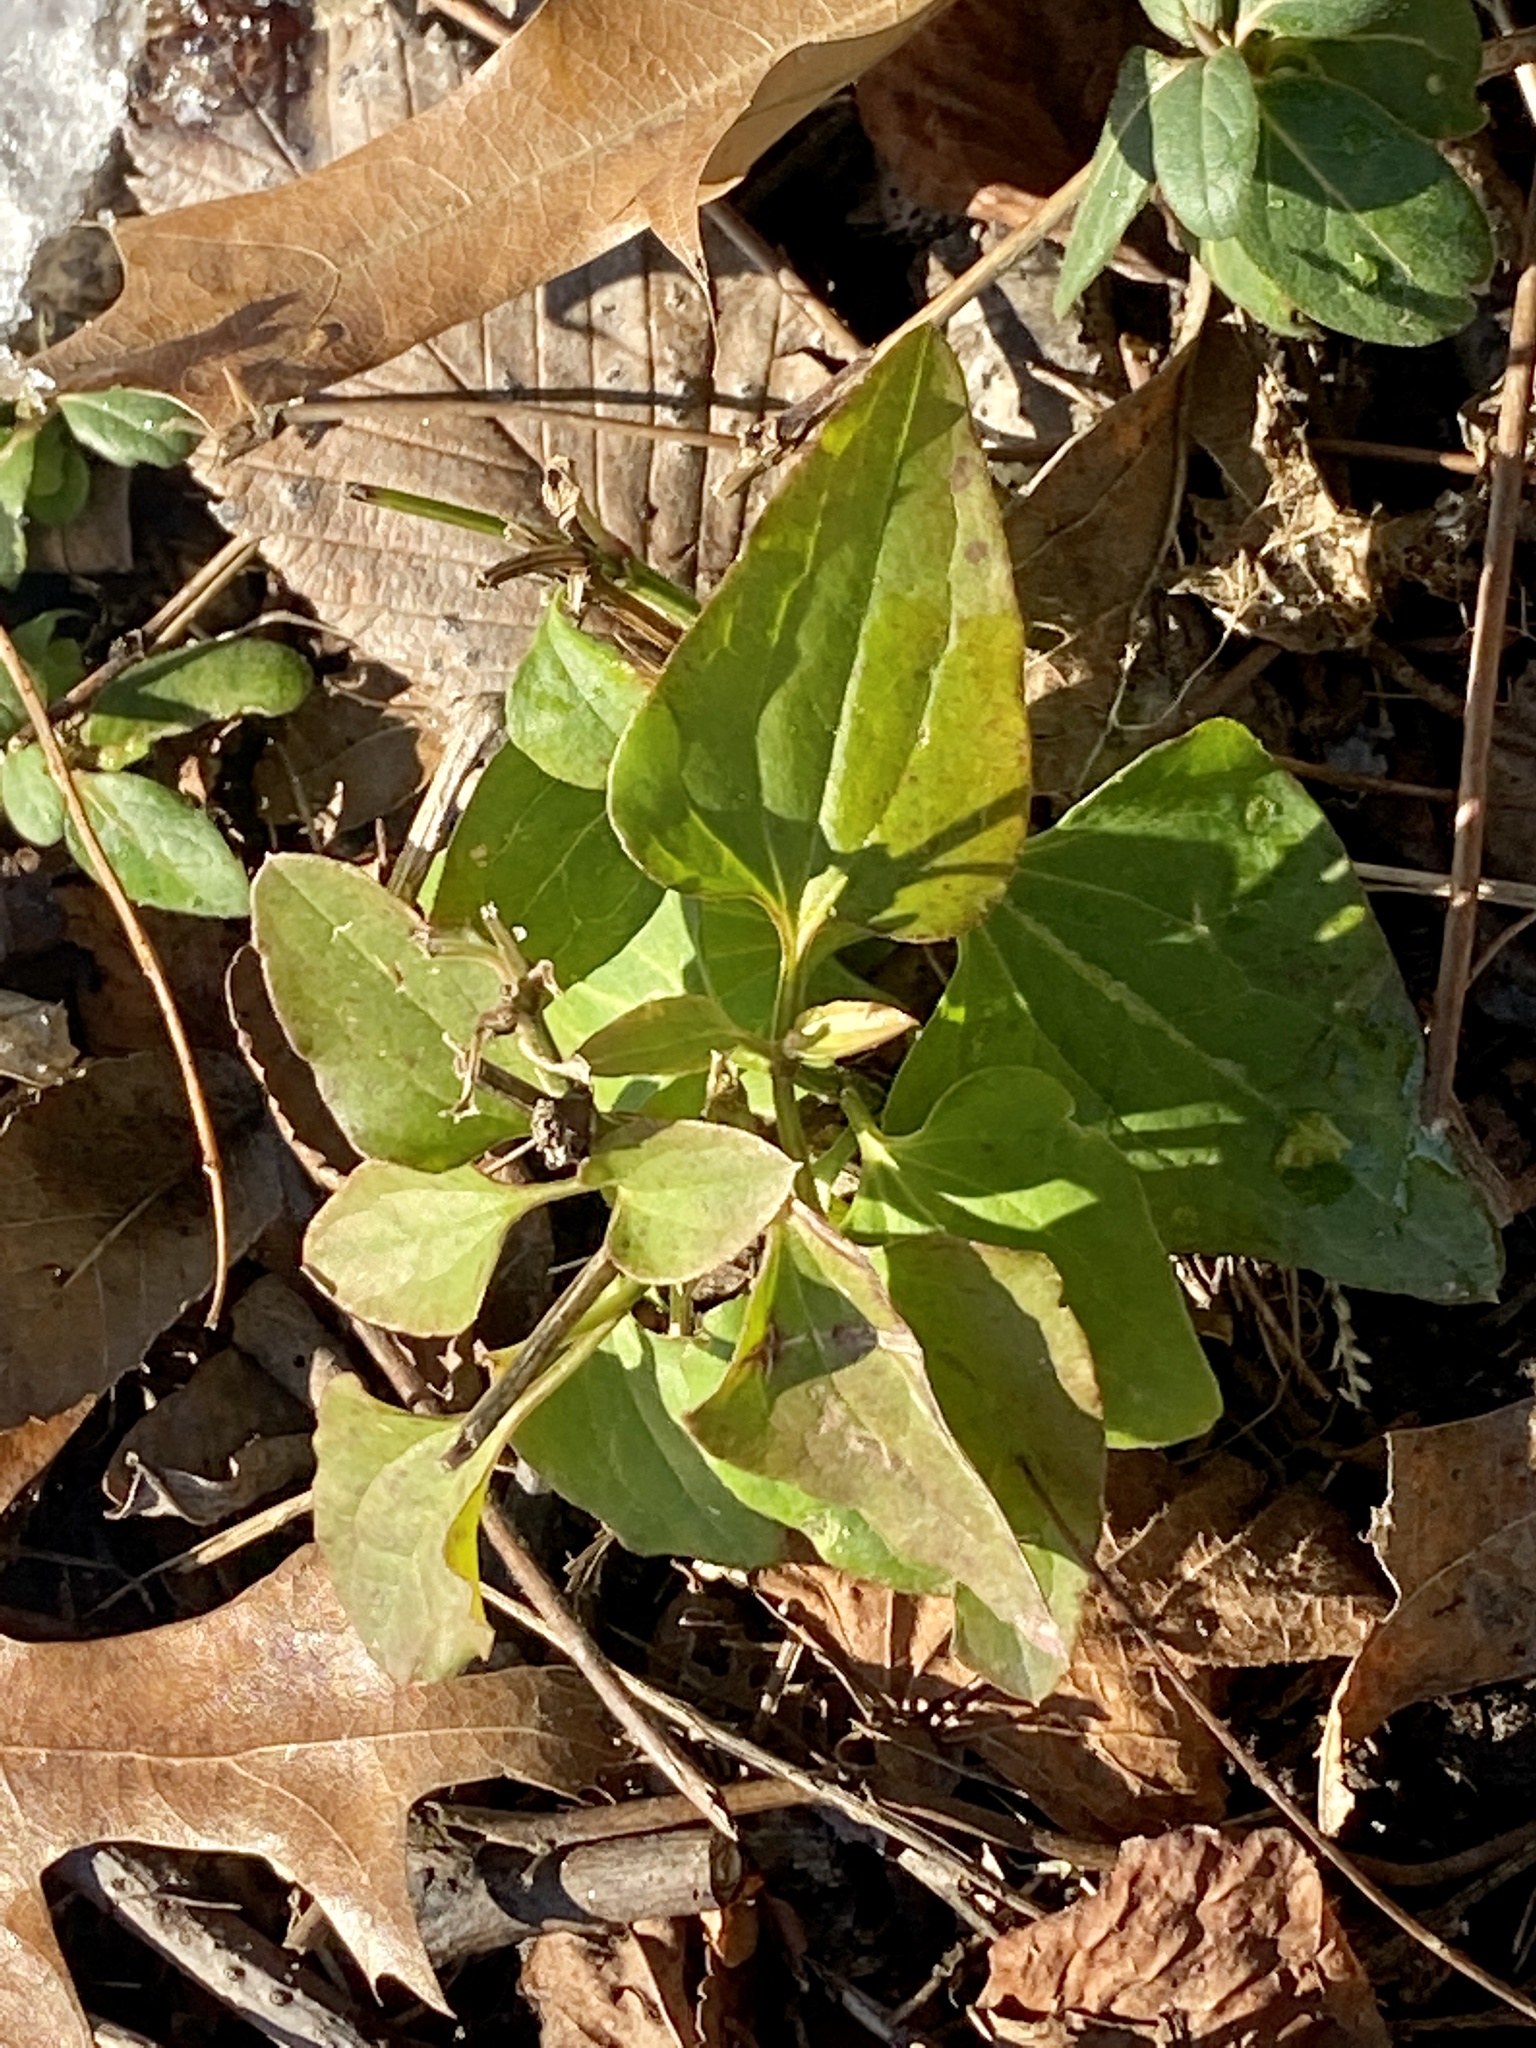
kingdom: Plantae
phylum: Tracheophyta
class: Magnoliopsida
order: Ranunculales
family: Ranunculaceae
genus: Clematis
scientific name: Clematis terniflora
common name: Sweet autumn clematis
